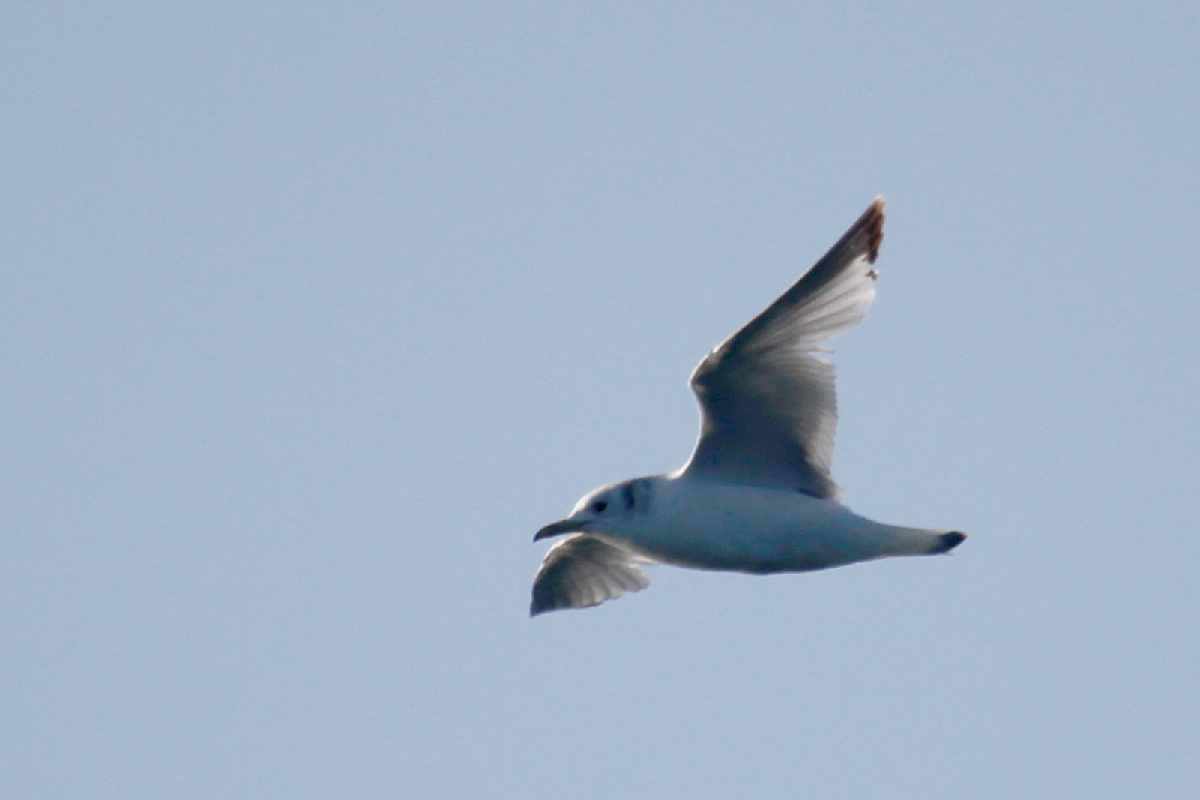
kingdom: Animalia
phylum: Chordata
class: Aves
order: Charadriiformes
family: Laridae
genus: Rissa
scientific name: Rissa tridactyla
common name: Black-legged kittiwake
